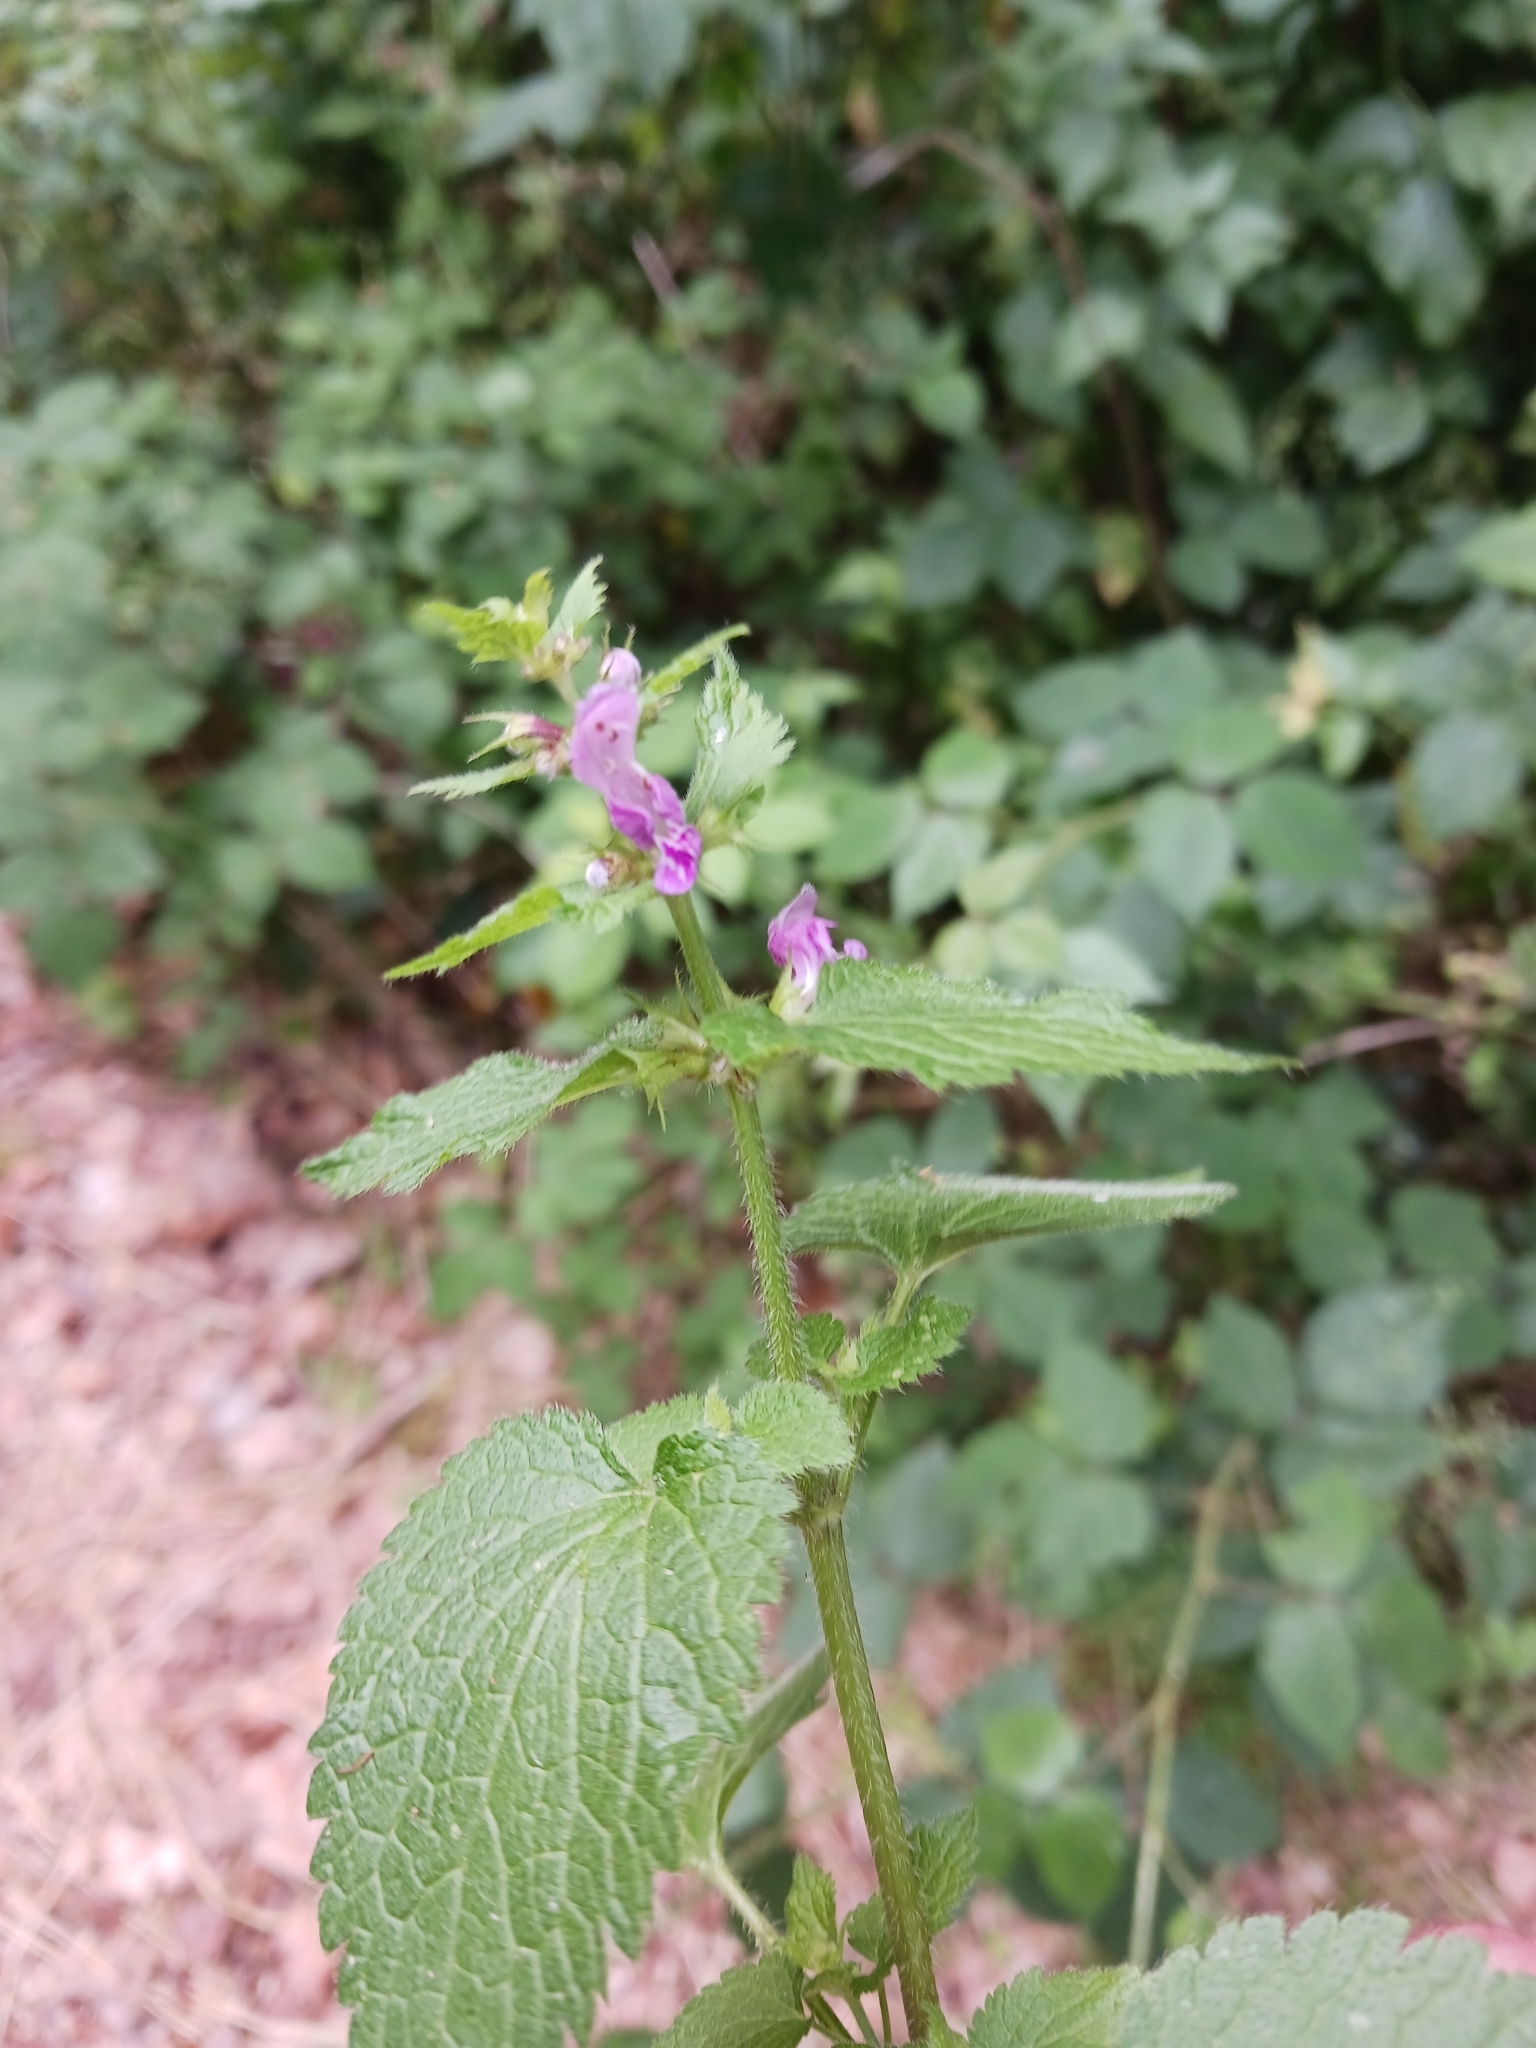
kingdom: Plantae
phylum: Tracheophyta
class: Magnoliopsida
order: Lamiales
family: Lamiaceae
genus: Lamium
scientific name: Lamium maculatum
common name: Spotted dead-nettle
